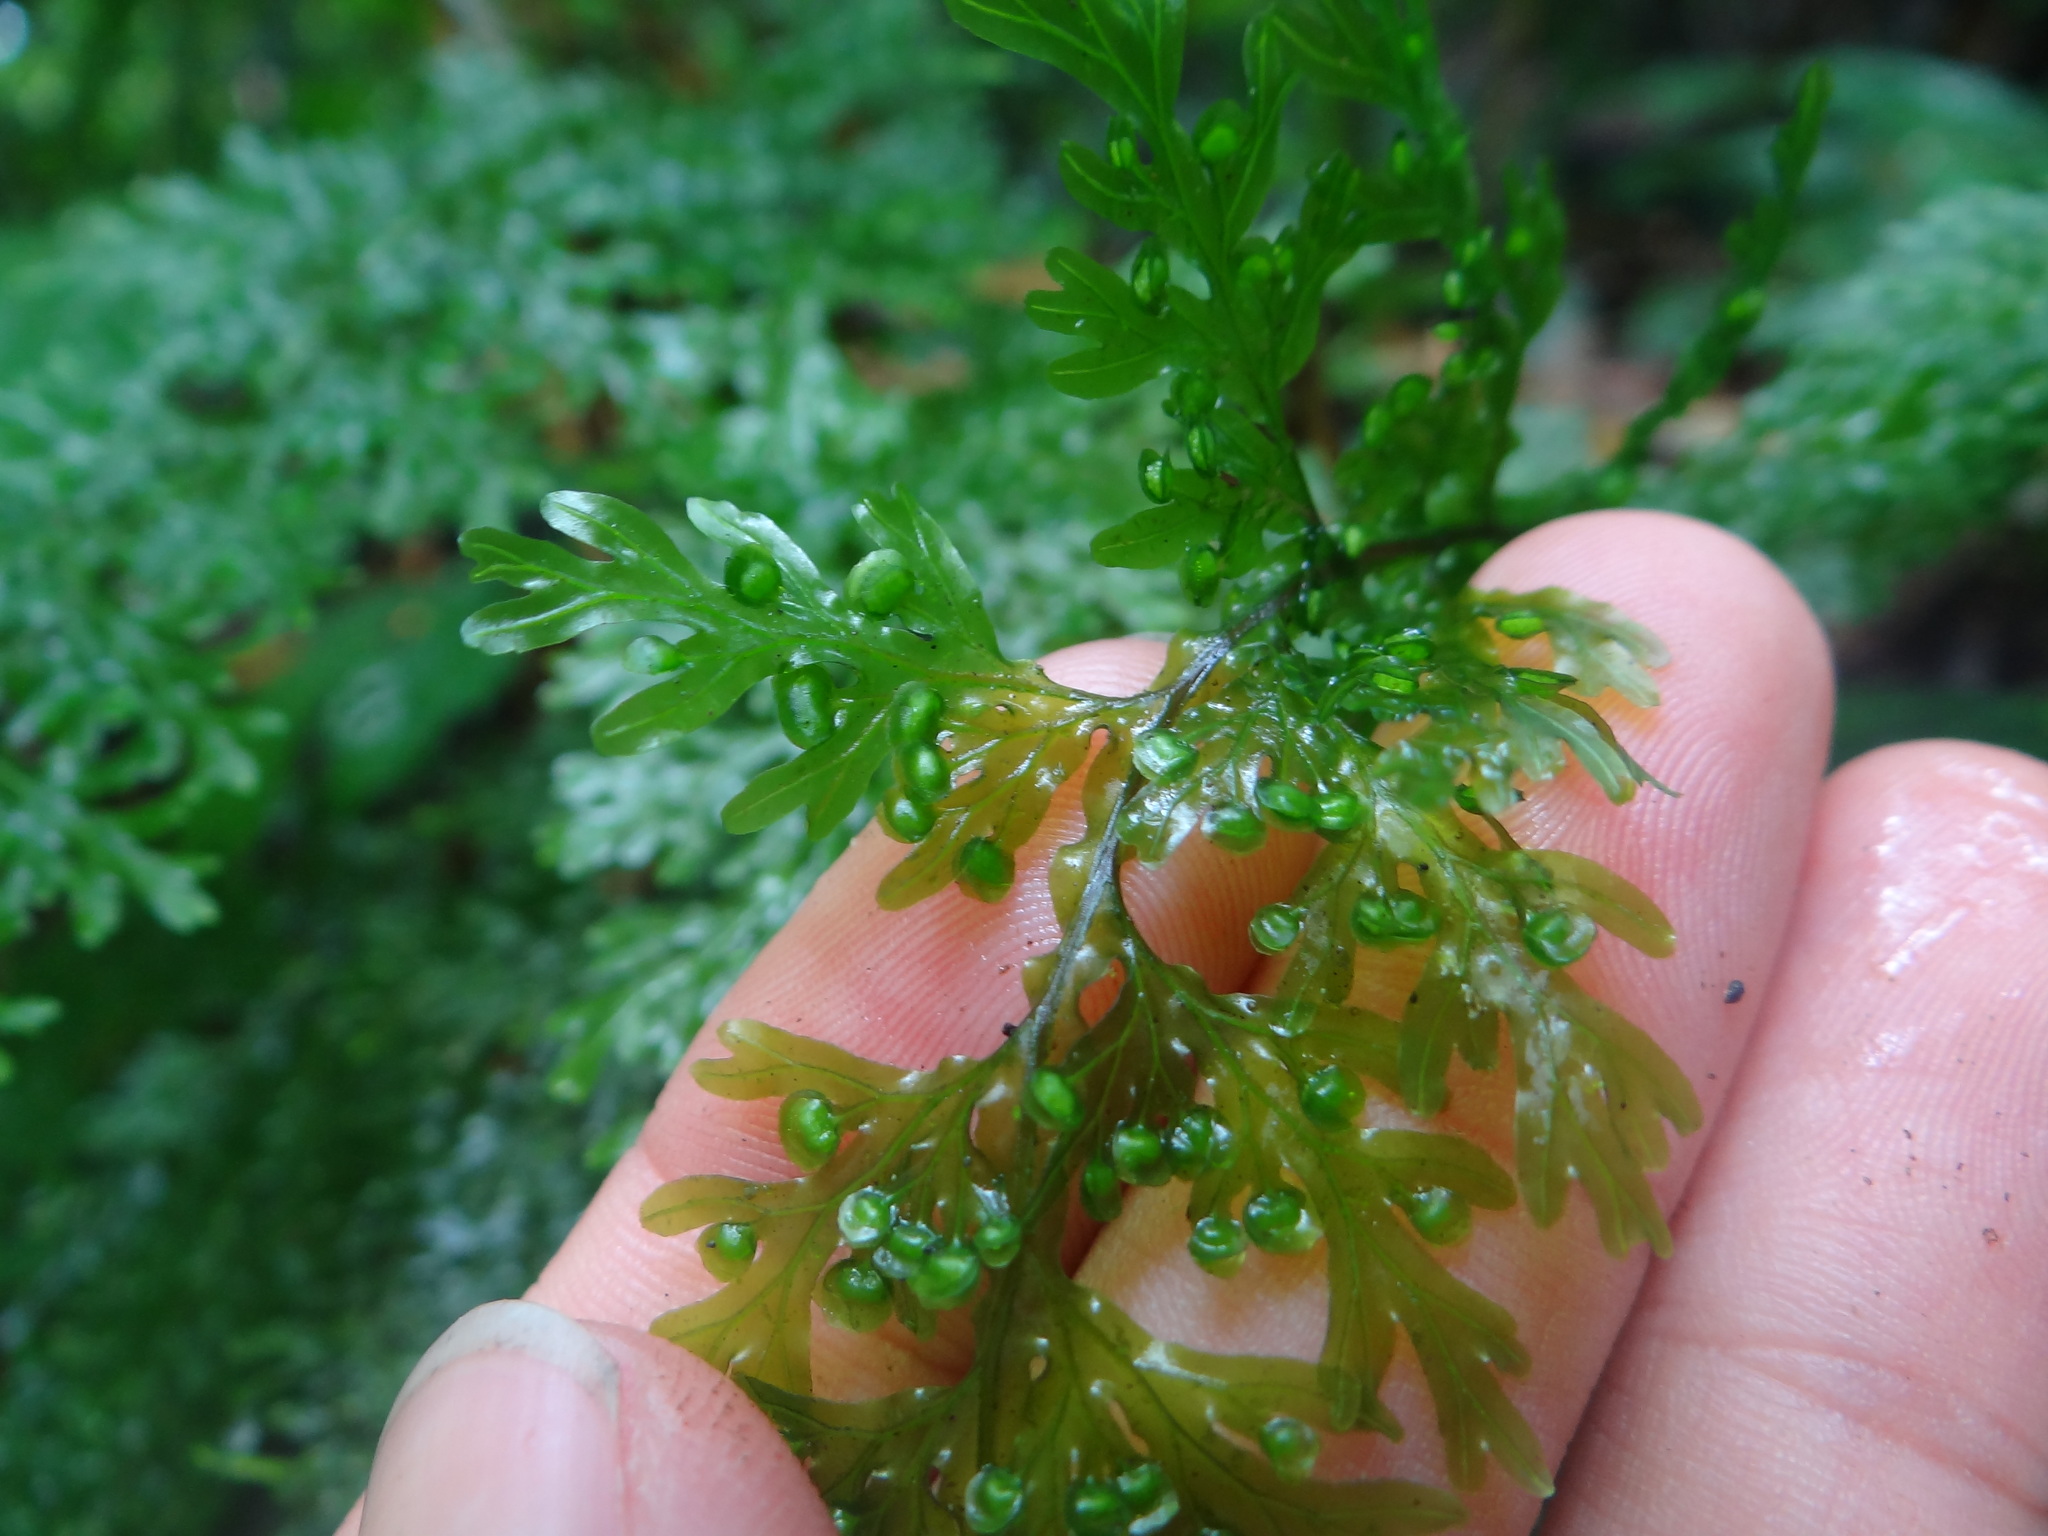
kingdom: Plantae
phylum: Tracheophyta
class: Polypodiopsida
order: Hymenophyllales
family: Hymenophyllaceae
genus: Hymenophyllum
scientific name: Hymenophyllum badium
